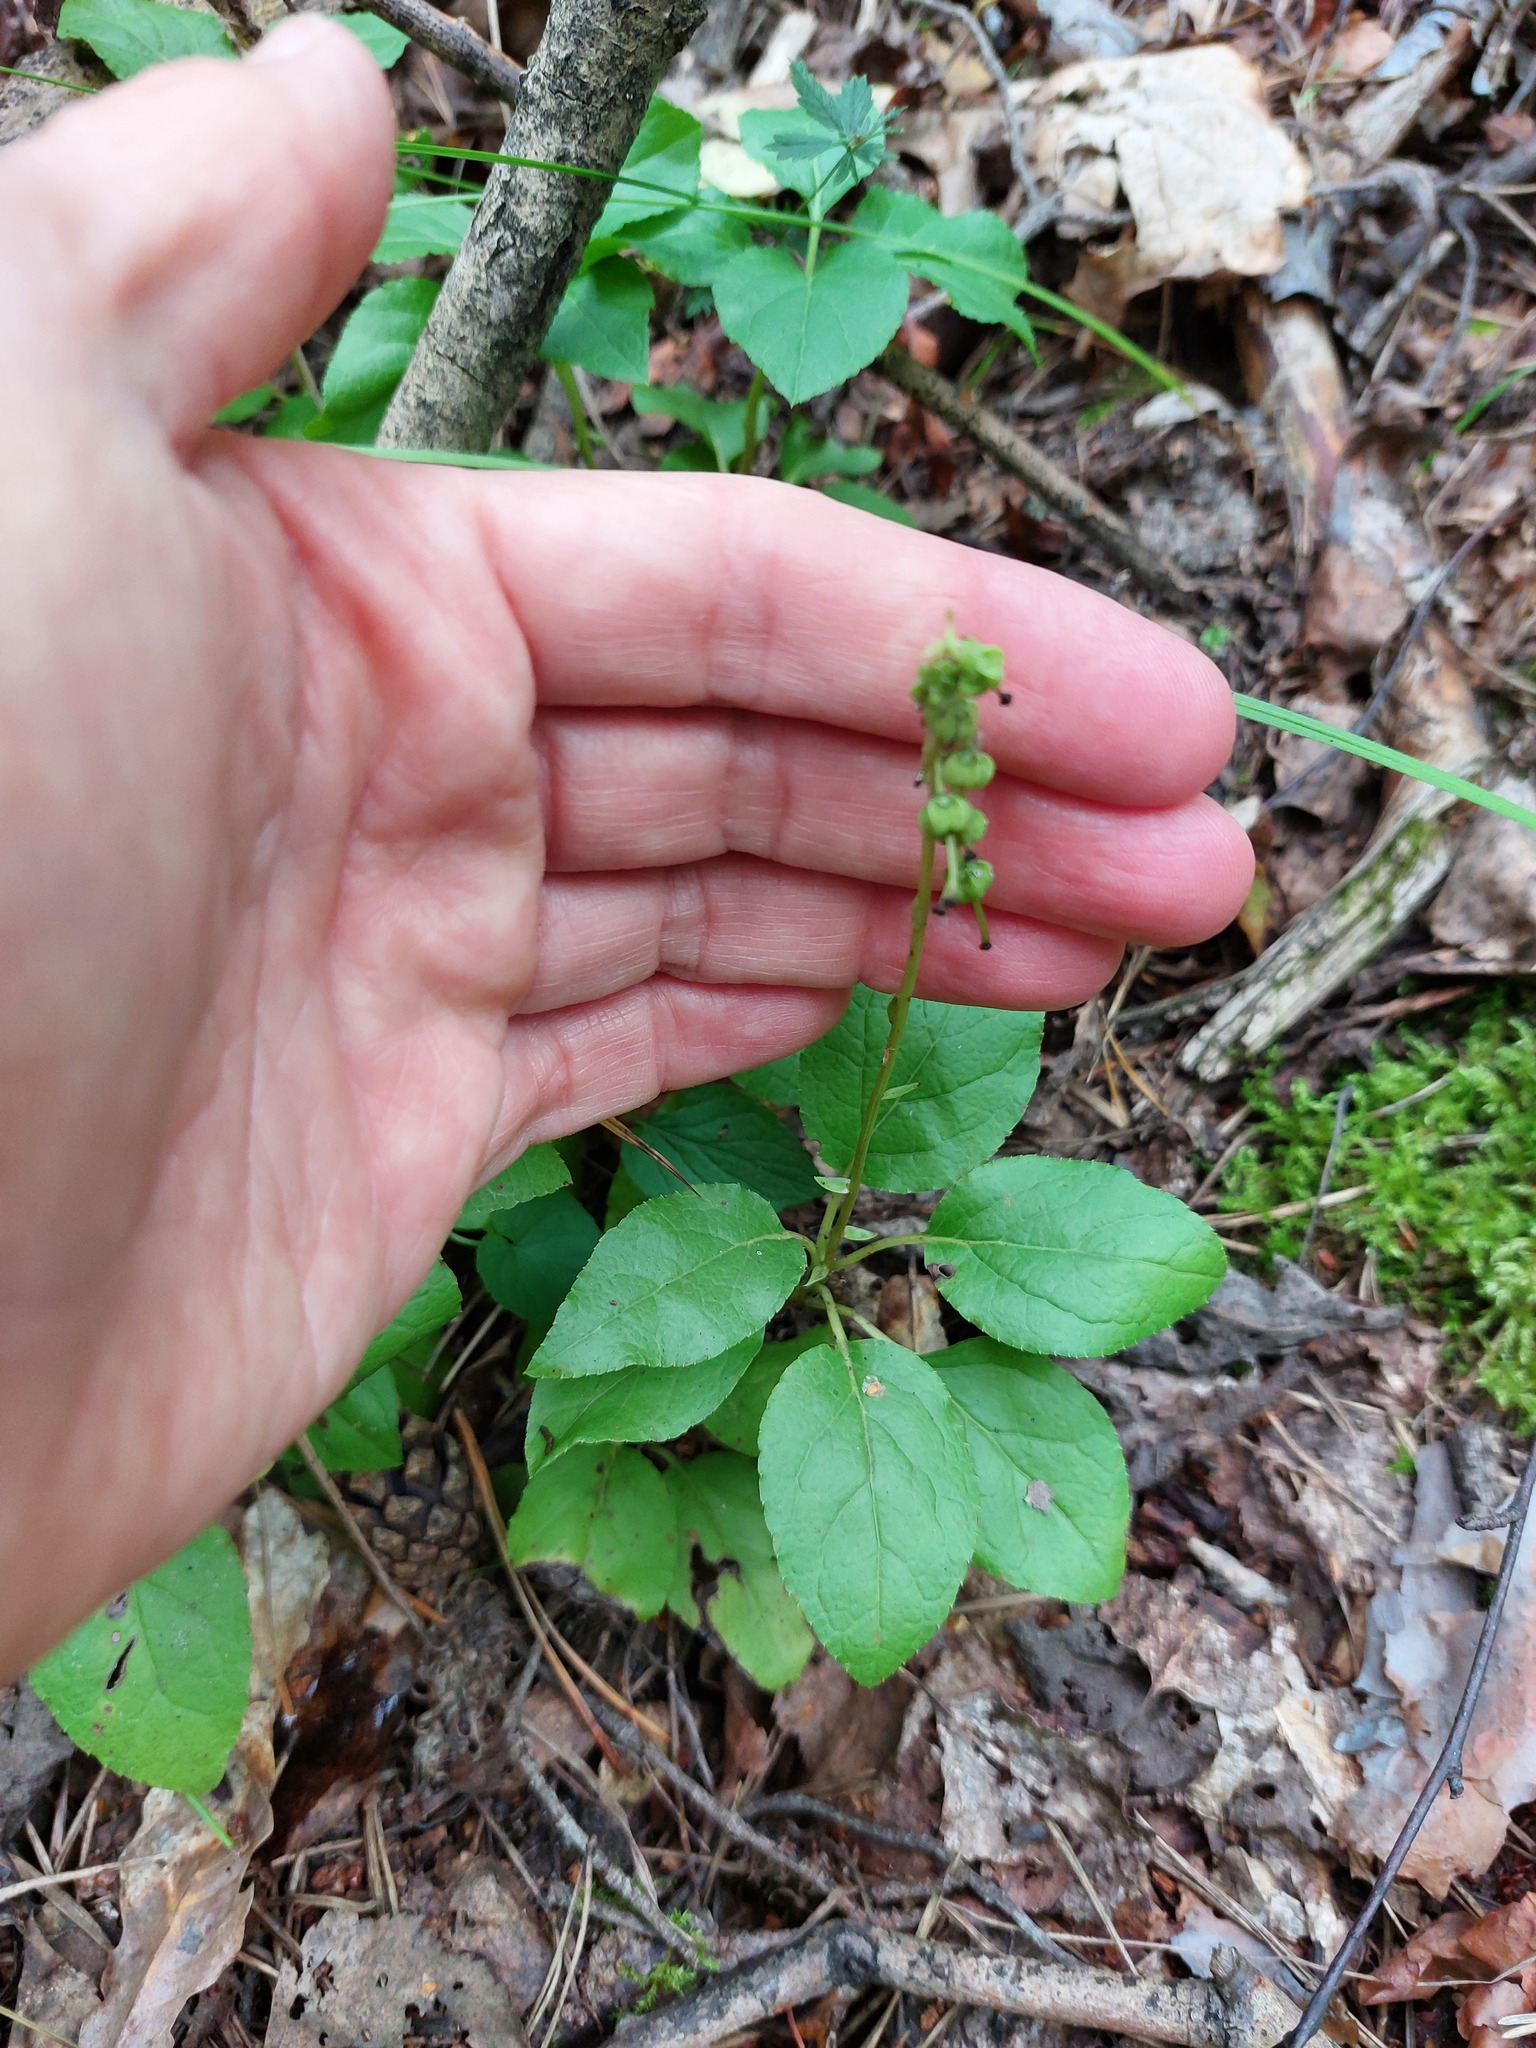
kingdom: Plantae
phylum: Tracheophyta
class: Magnoliopsida
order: Ericales
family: Ericaceae
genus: Orthilia
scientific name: Orthilia secunda
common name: One-sided orthilia
